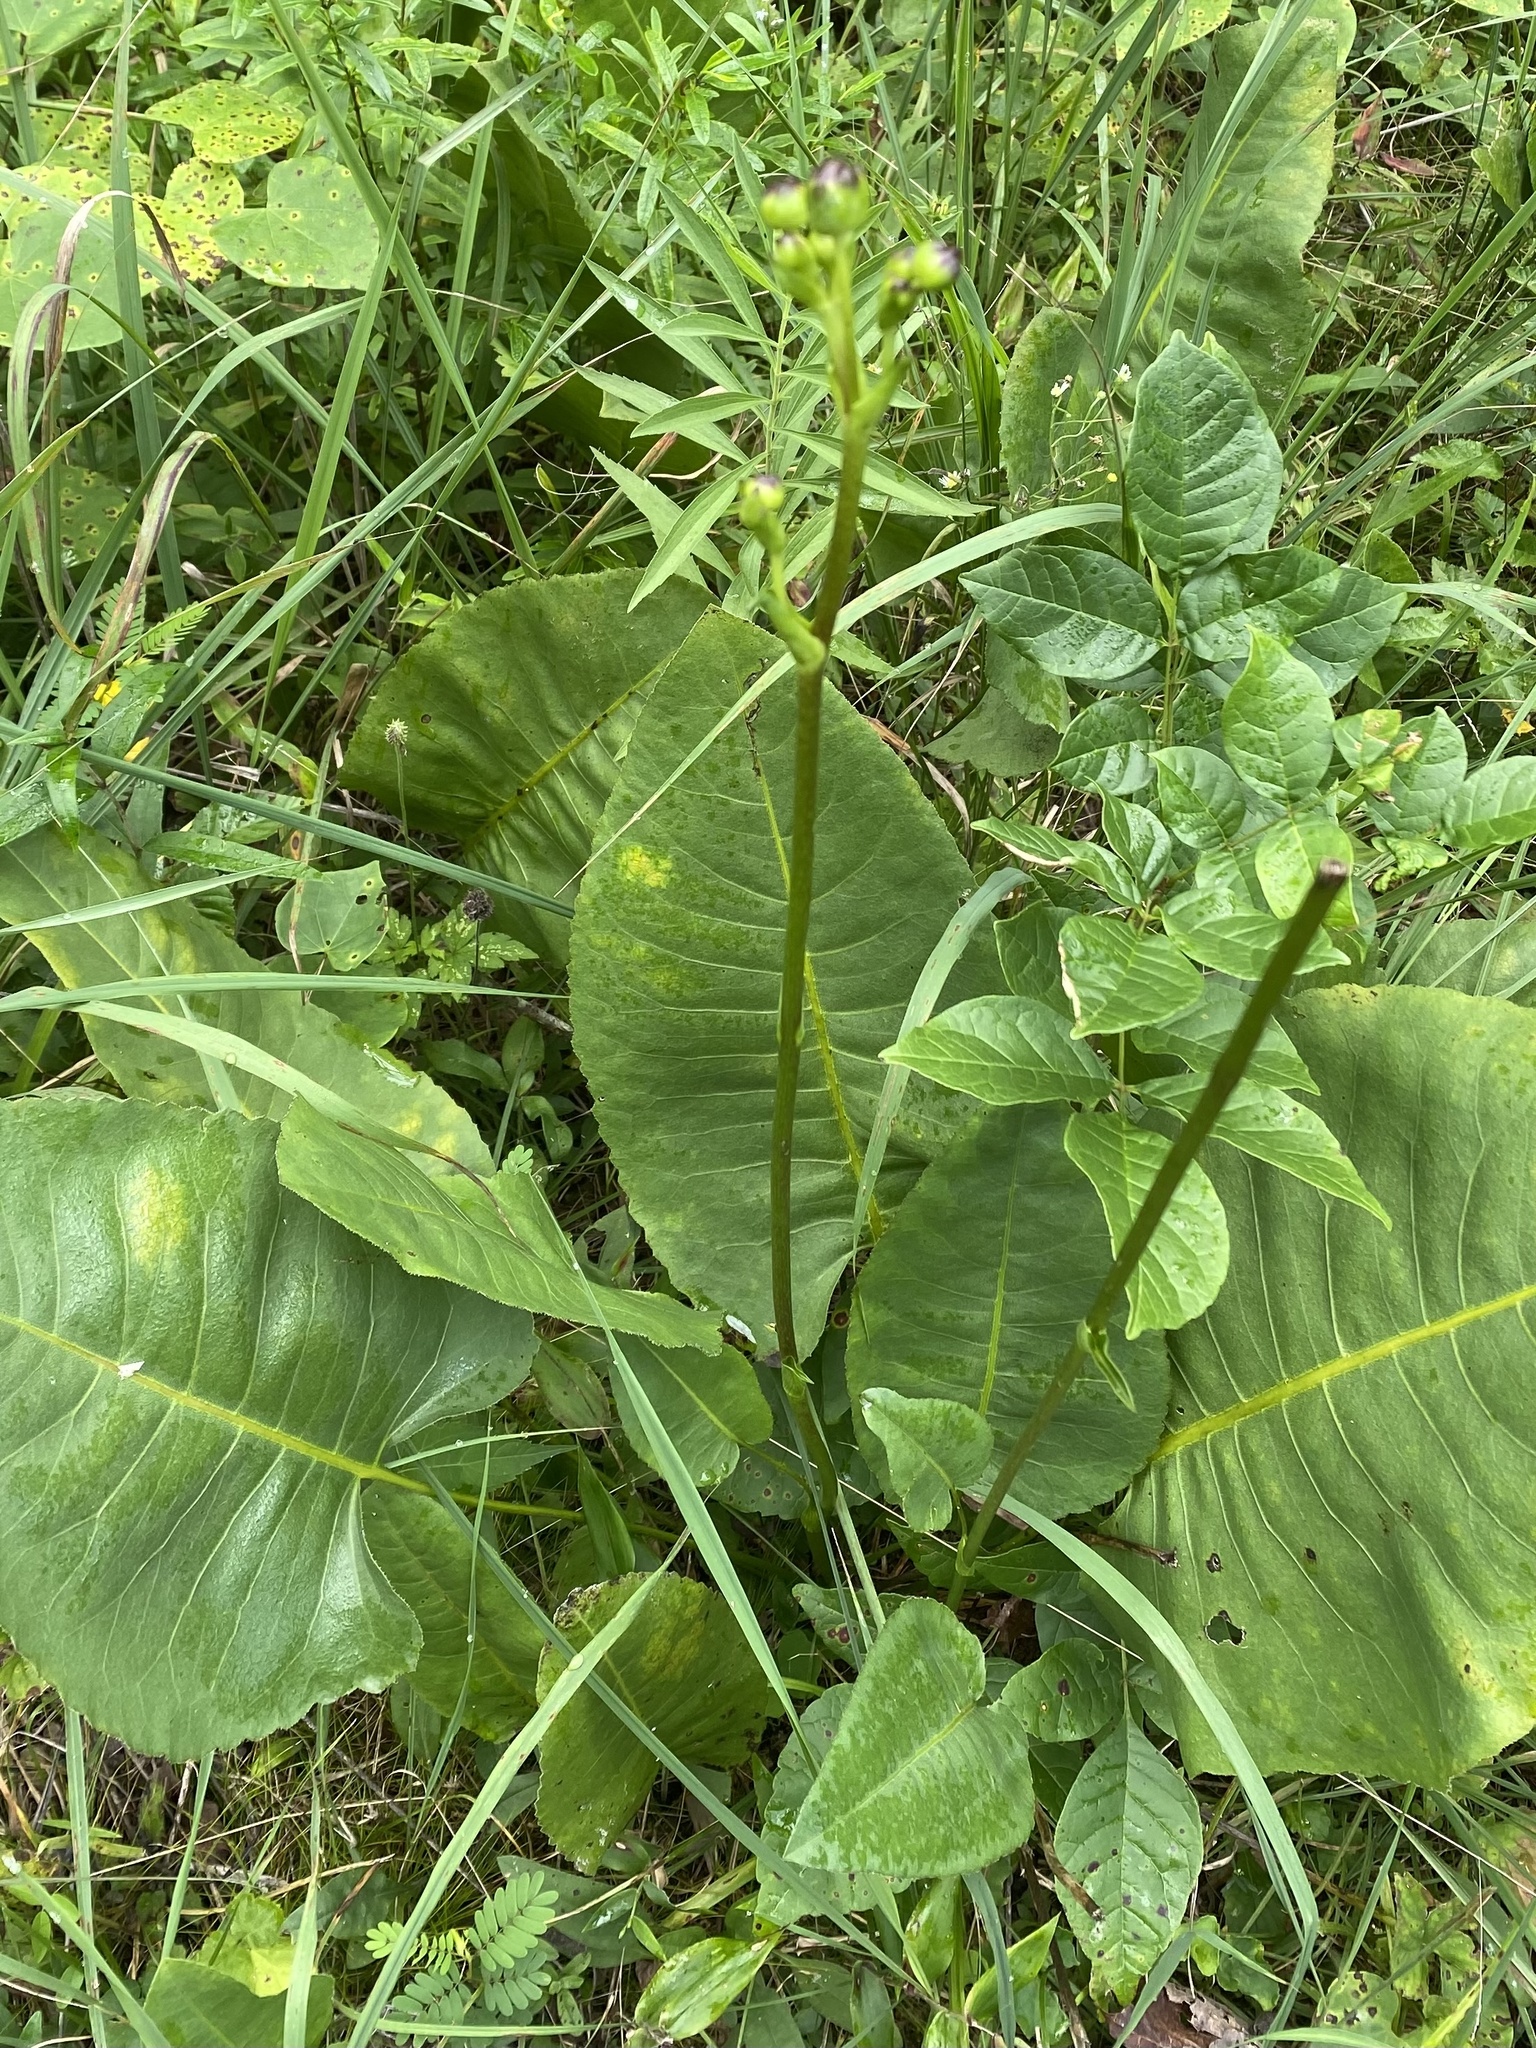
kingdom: Plantae
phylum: Tracheophyta
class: Magnoliopsida
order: Asterales
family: Asteraceae
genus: Silphium
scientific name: Silphium terebinthinaceum
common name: Basal-leaf rosinweed
